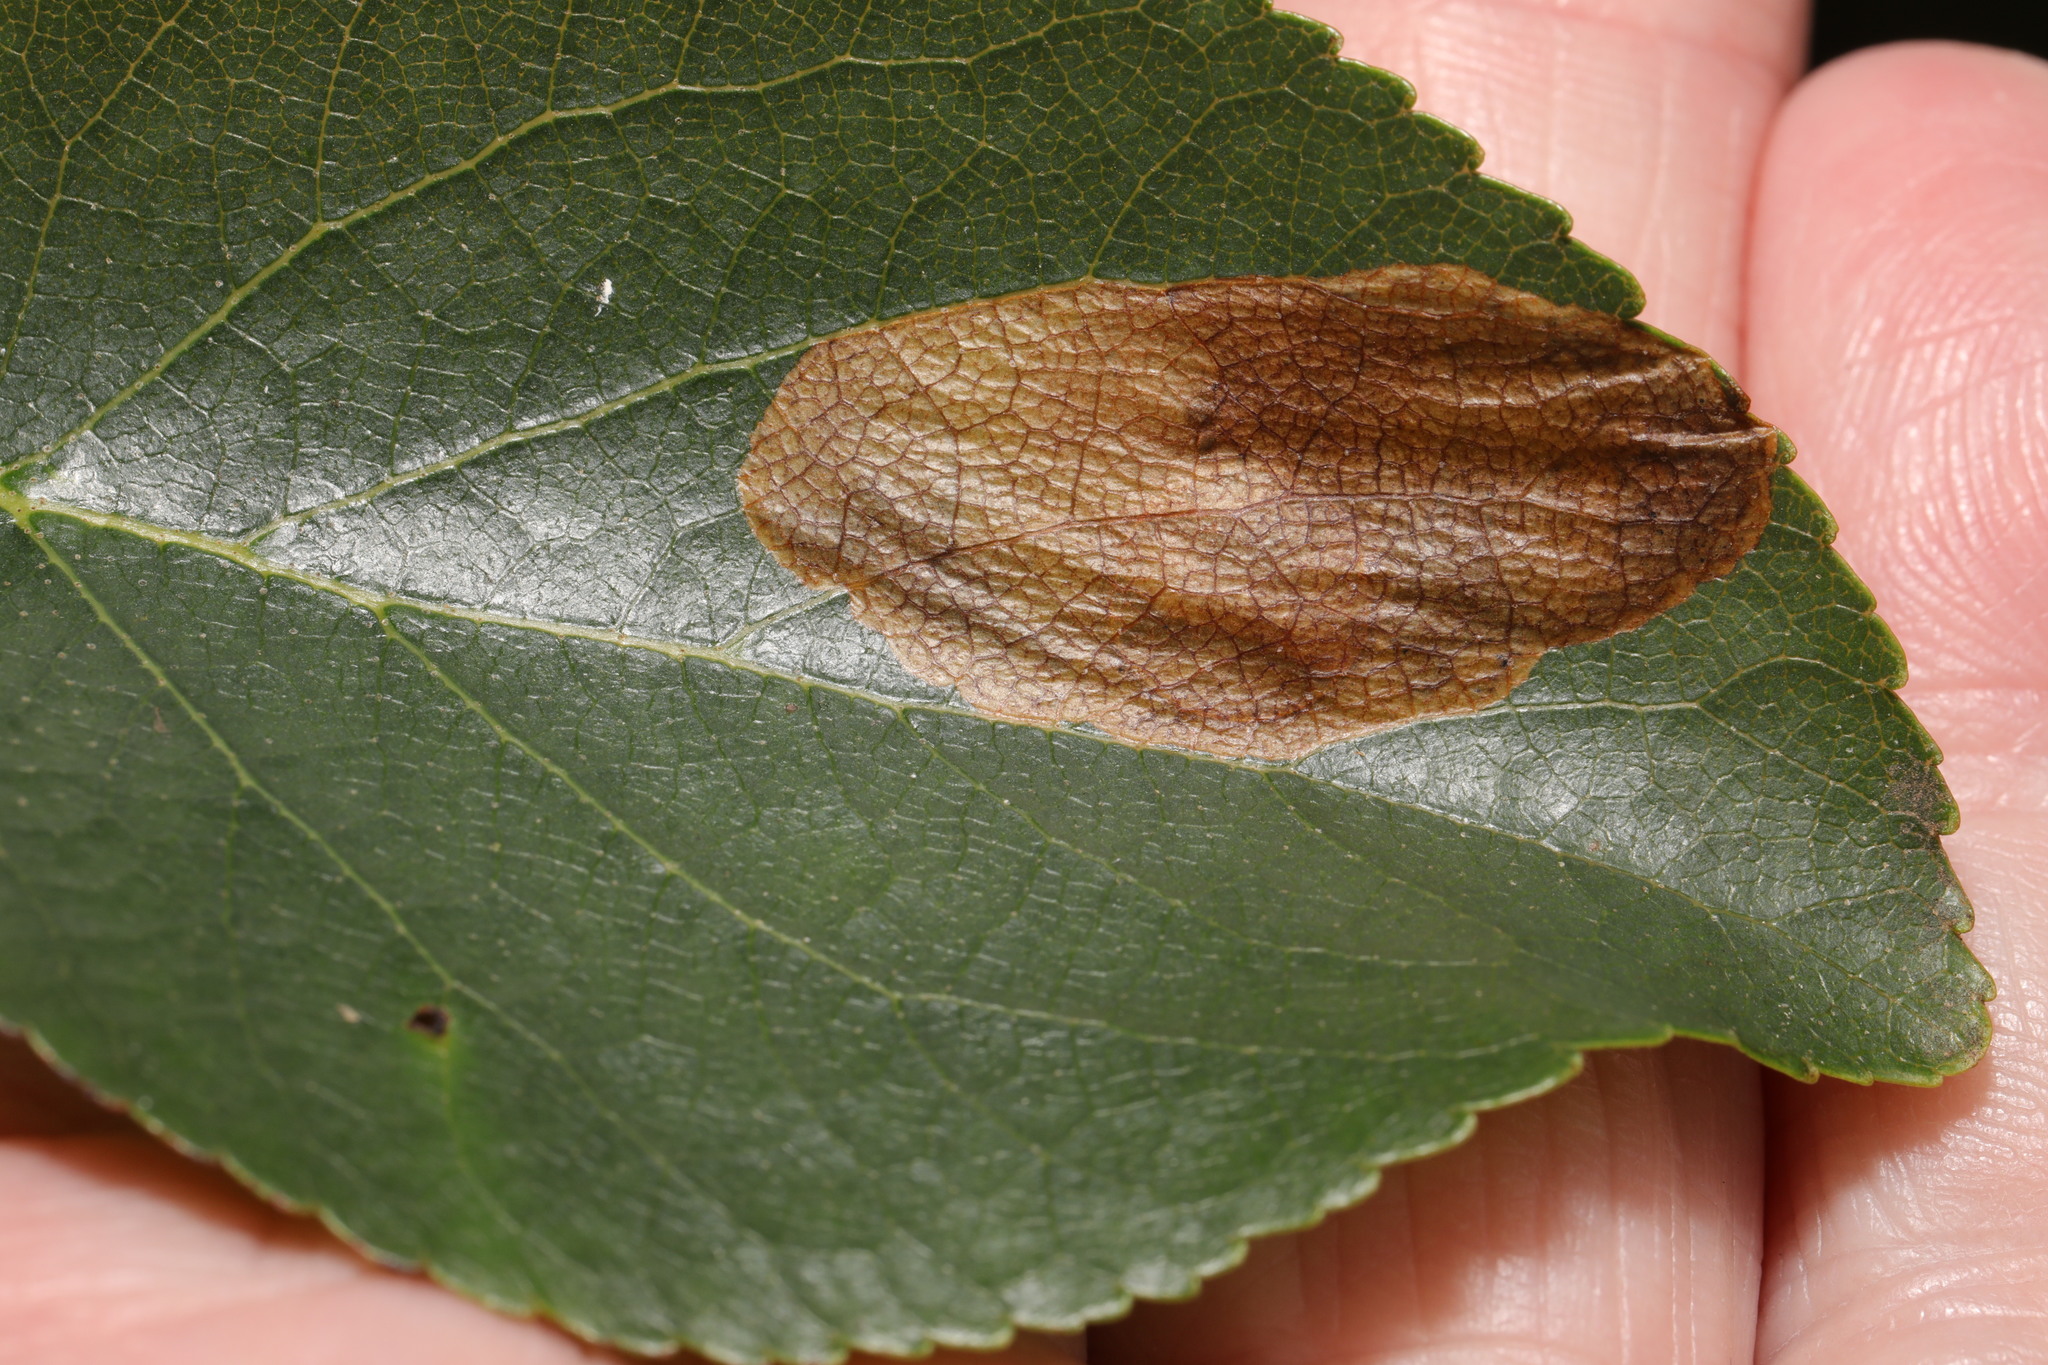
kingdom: Animalia
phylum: Arthropoda
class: Insecta
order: Hymenoptera
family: Tenthredinidae
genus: Heterarthrus
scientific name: Heterarthrus vagans
